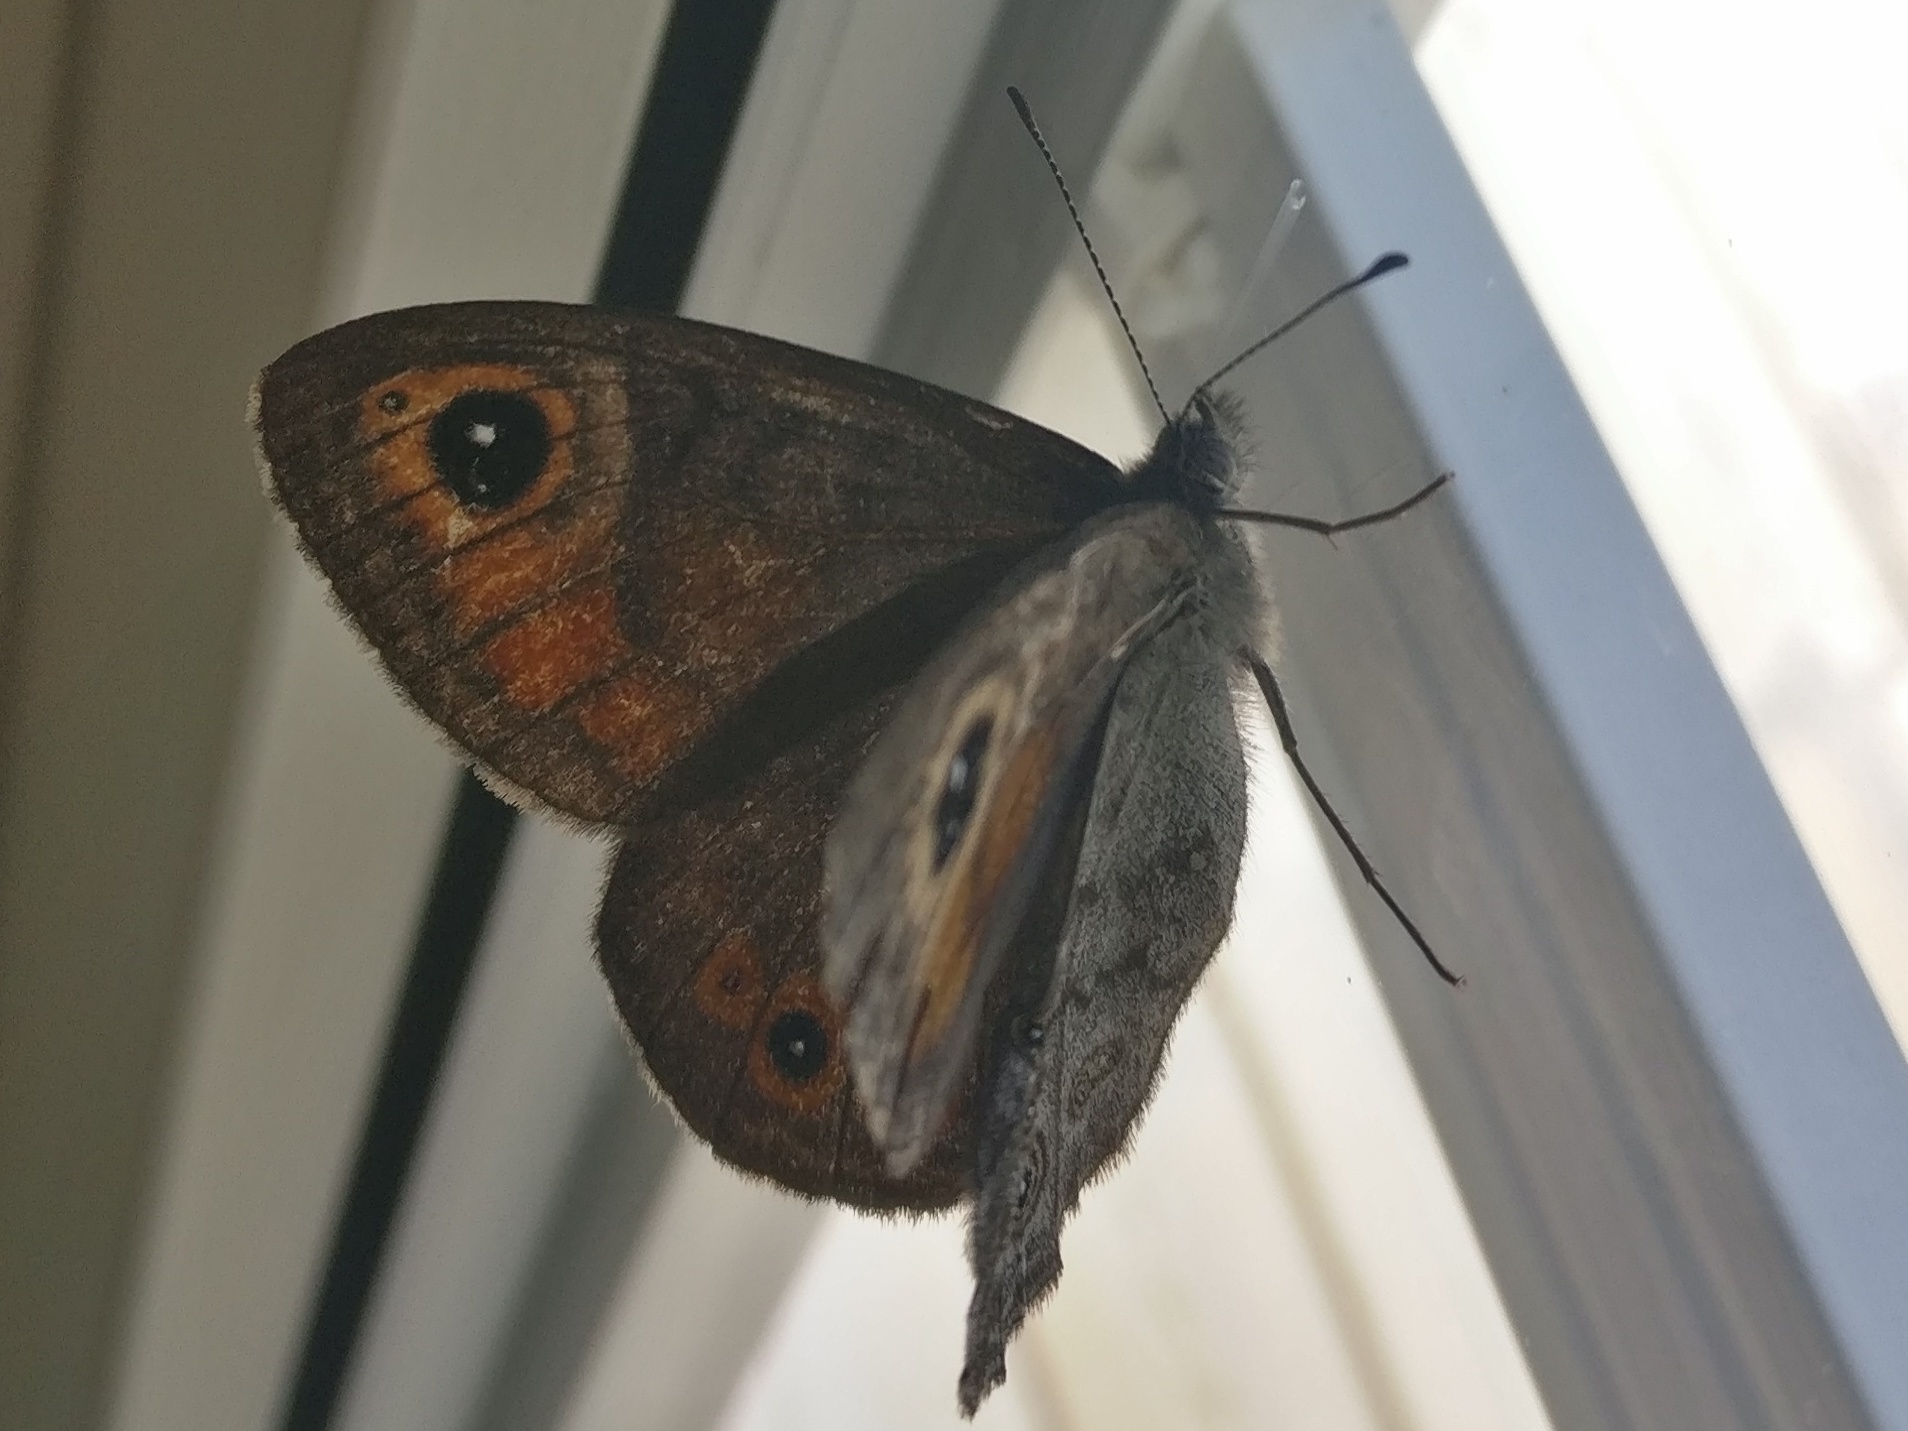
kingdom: Animalia
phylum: Arthropoda
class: Insecta
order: Lepidoptera
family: Nymphalidae
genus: Pararge
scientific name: Pararge Lasiommata maera
